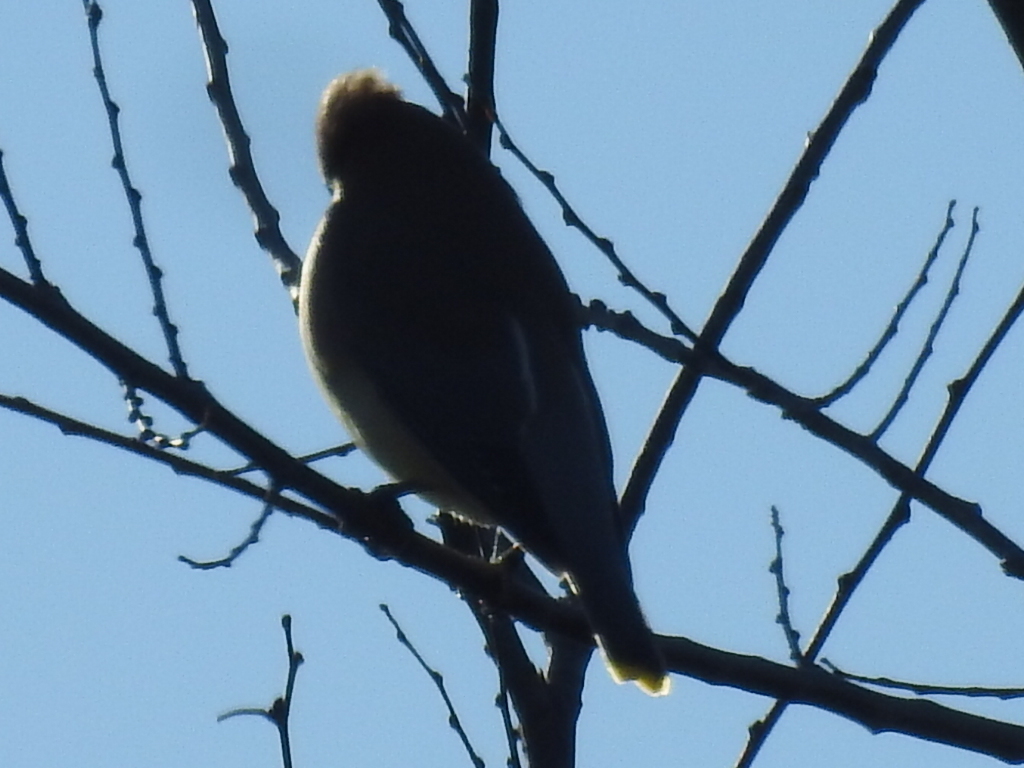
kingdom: Animalia
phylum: Chordata
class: Aves
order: Passeriformes
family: Bombycillidae
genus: Bombycilla
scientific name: Bombycilla cedrorum
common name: Cedar waxwing
